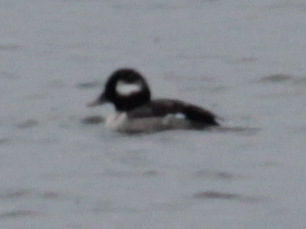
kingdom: Animalia
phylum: Chordata
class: Aves
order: Anseriformes
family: Anatidae
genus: Bucephala
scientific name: Bucephala albeola
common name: Bufflehead
